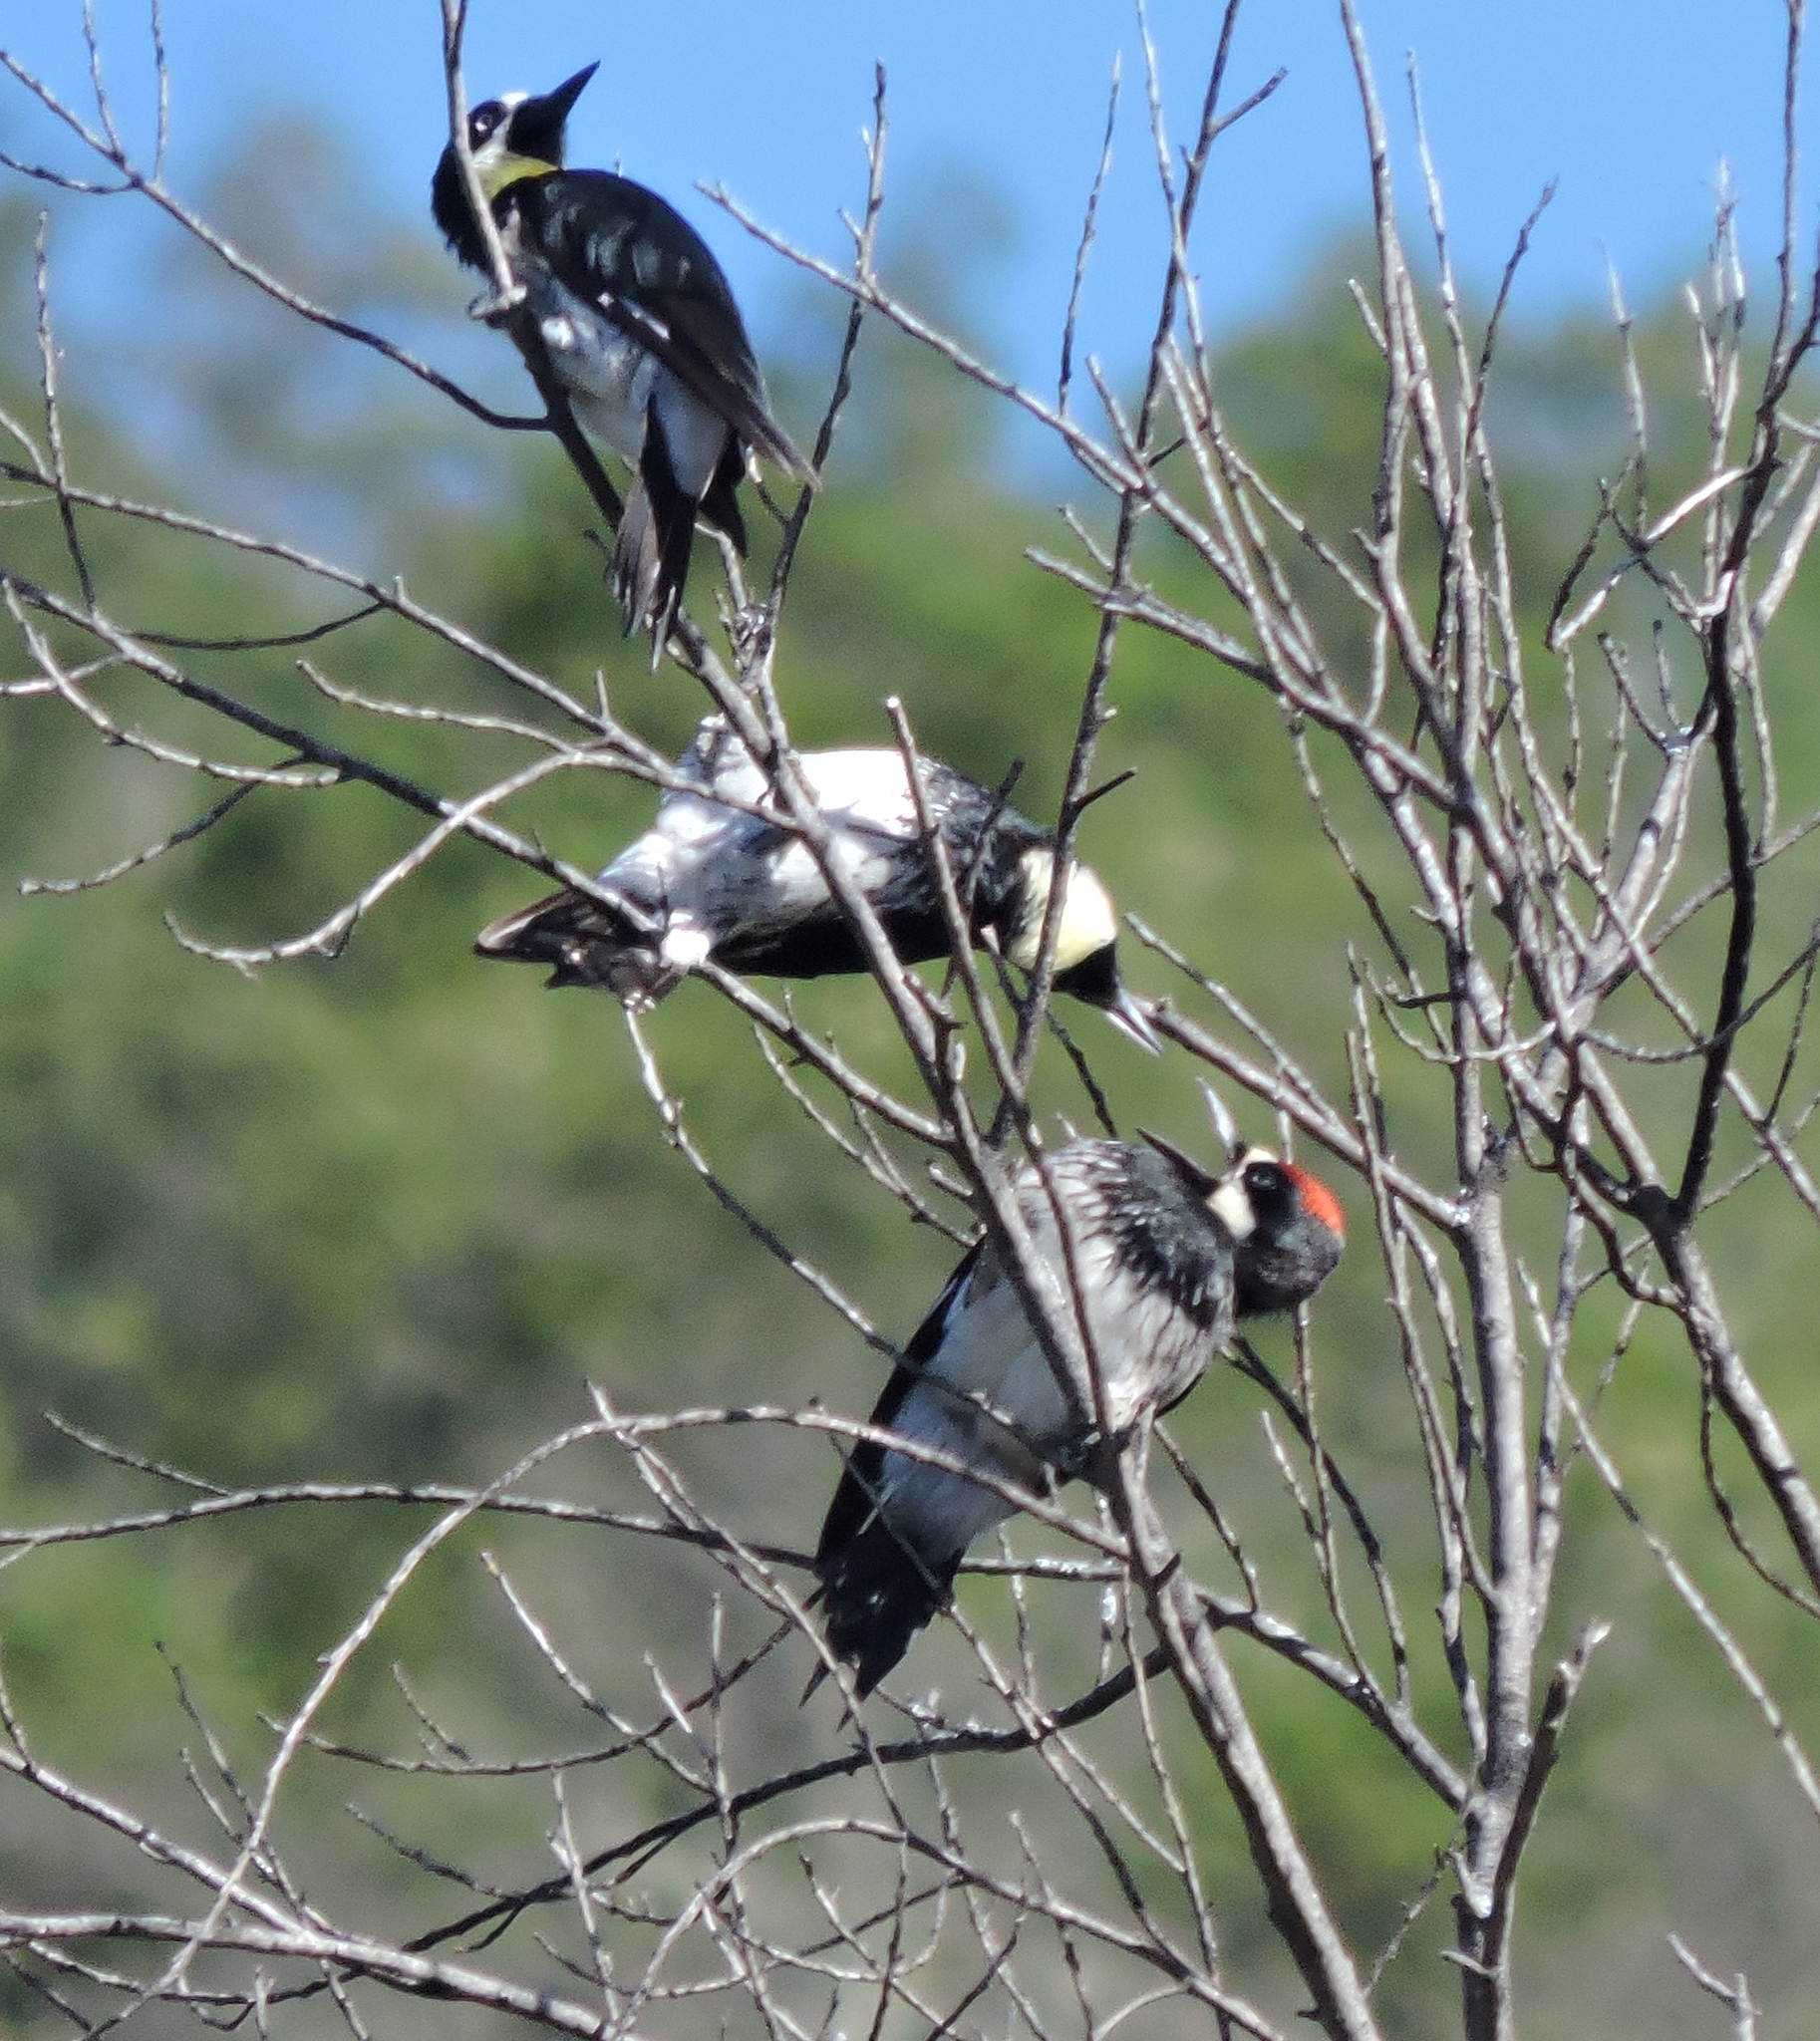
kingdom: Animalia
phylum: Chordata
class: Aves
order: Piciformes
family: Picidae
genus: Melanerpes
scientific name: Melanerpes formicivorus
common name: Acorn woodpecker
